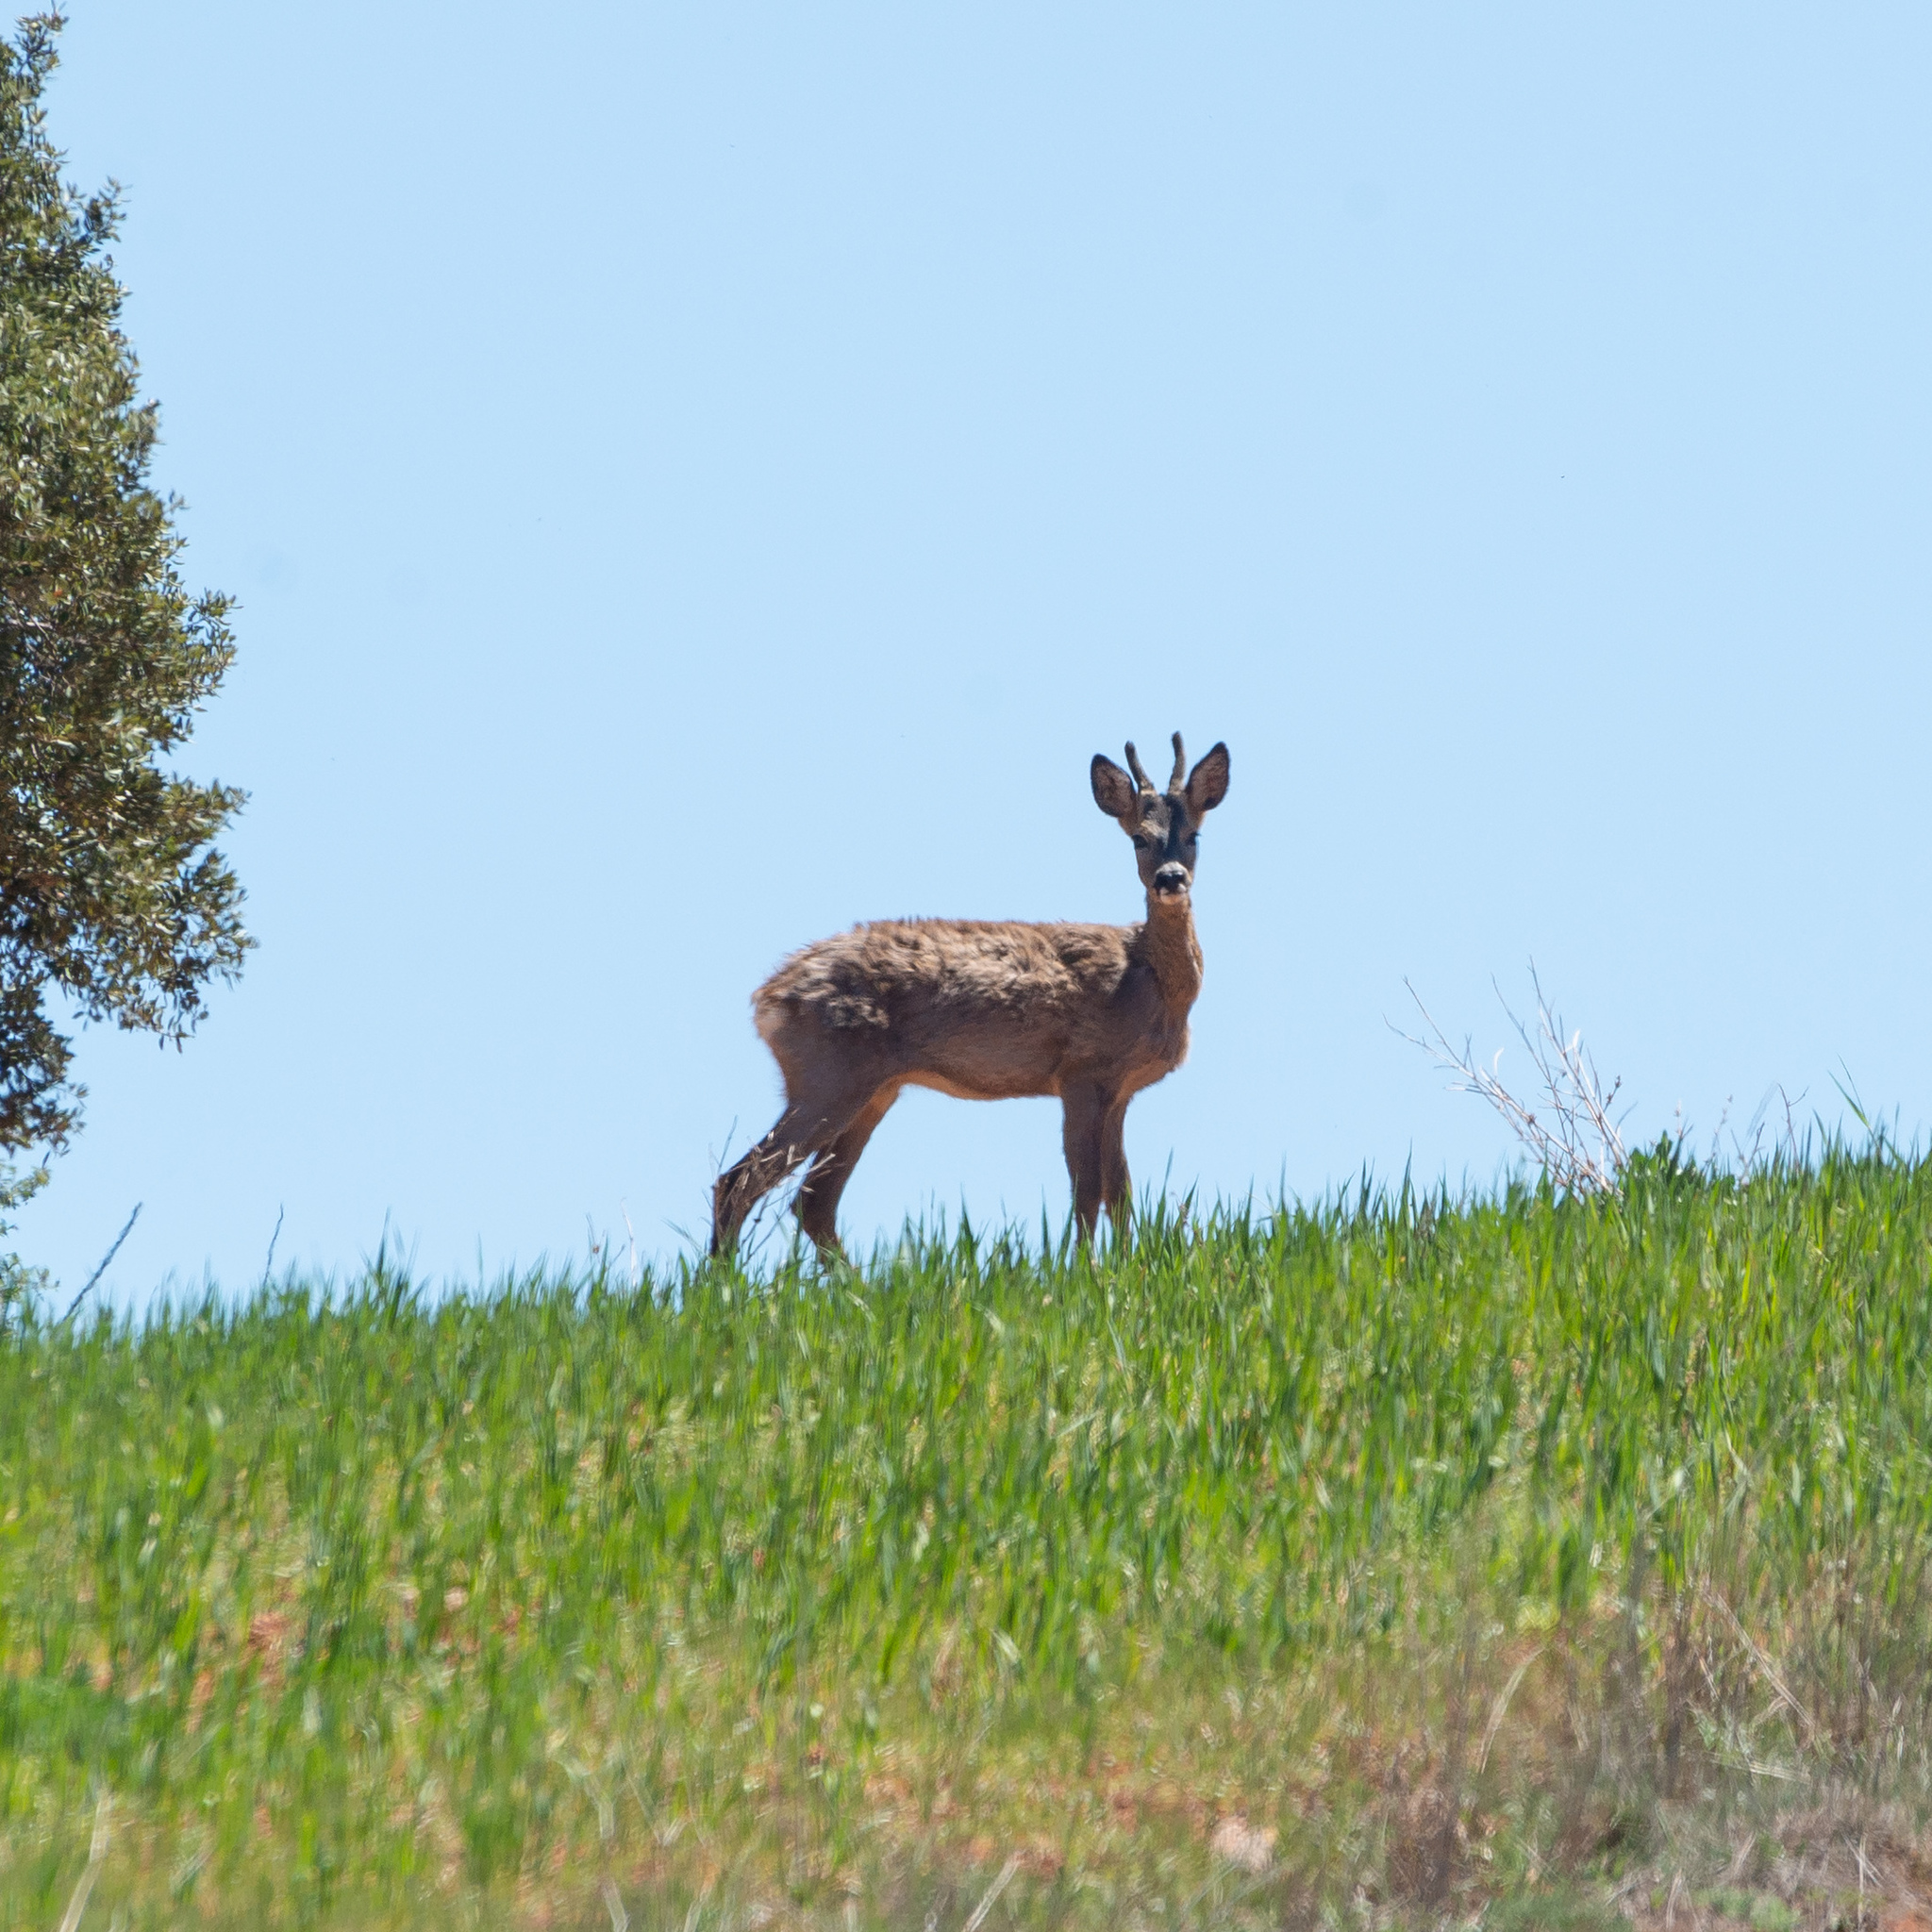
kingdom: Animalia
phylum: Chordata
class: Mammalia
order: Artiodactyla
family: Cervidae
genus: Capreolus
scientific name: Capreolus capreolus
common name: Western roe deer
